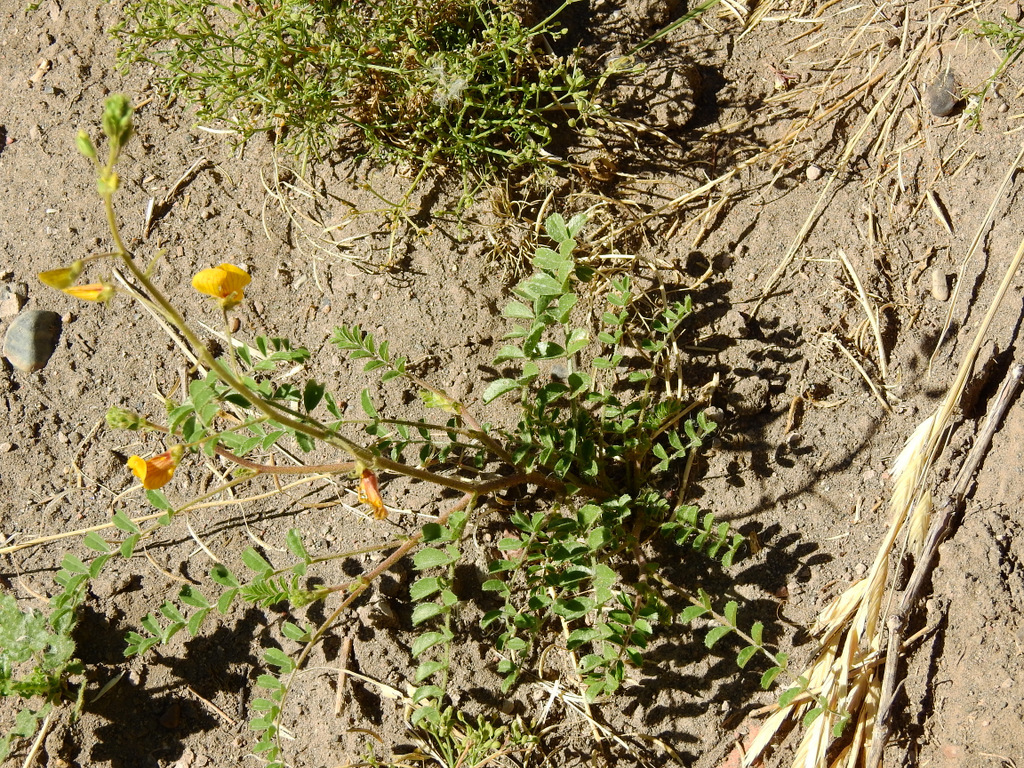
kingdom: Plantae
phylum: Tracheophyta
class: Magnoliopsida
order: Fabales
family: Fabaceae
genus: Adesmia
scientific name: Adesmia grandiflora
